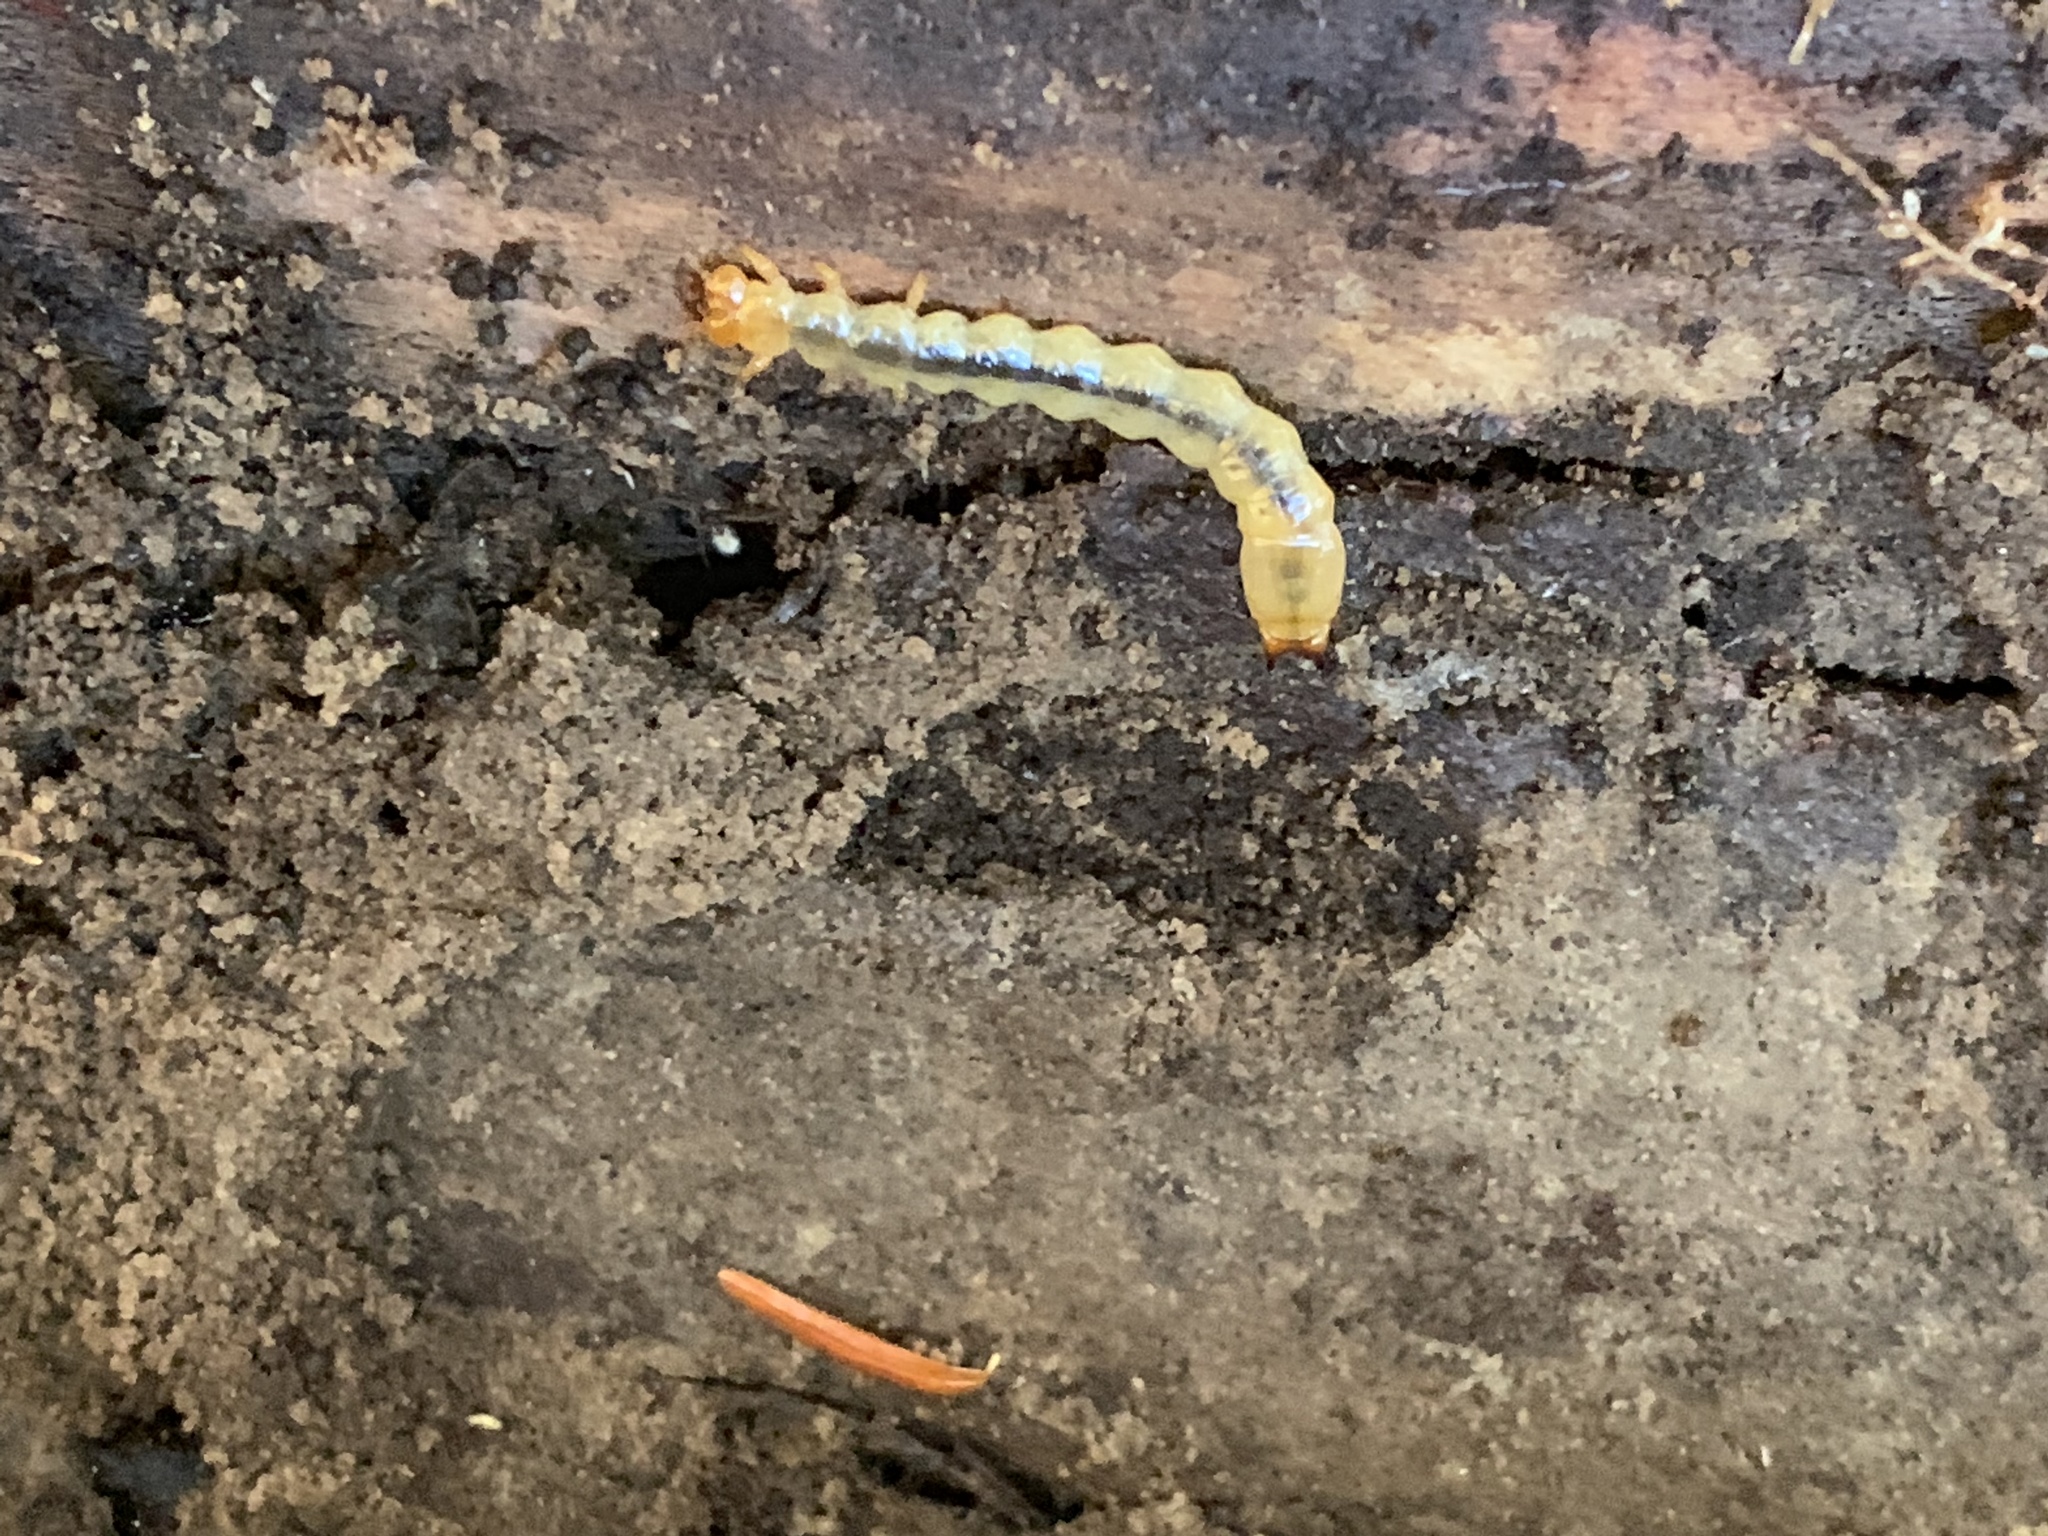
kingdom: Animalia
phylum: Arthropoda
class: Insecta
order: Coleoptera
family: Pyrochroidae
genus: Dendroides
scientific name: Dendroides canadensis
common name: Canada fire-colored beetle
